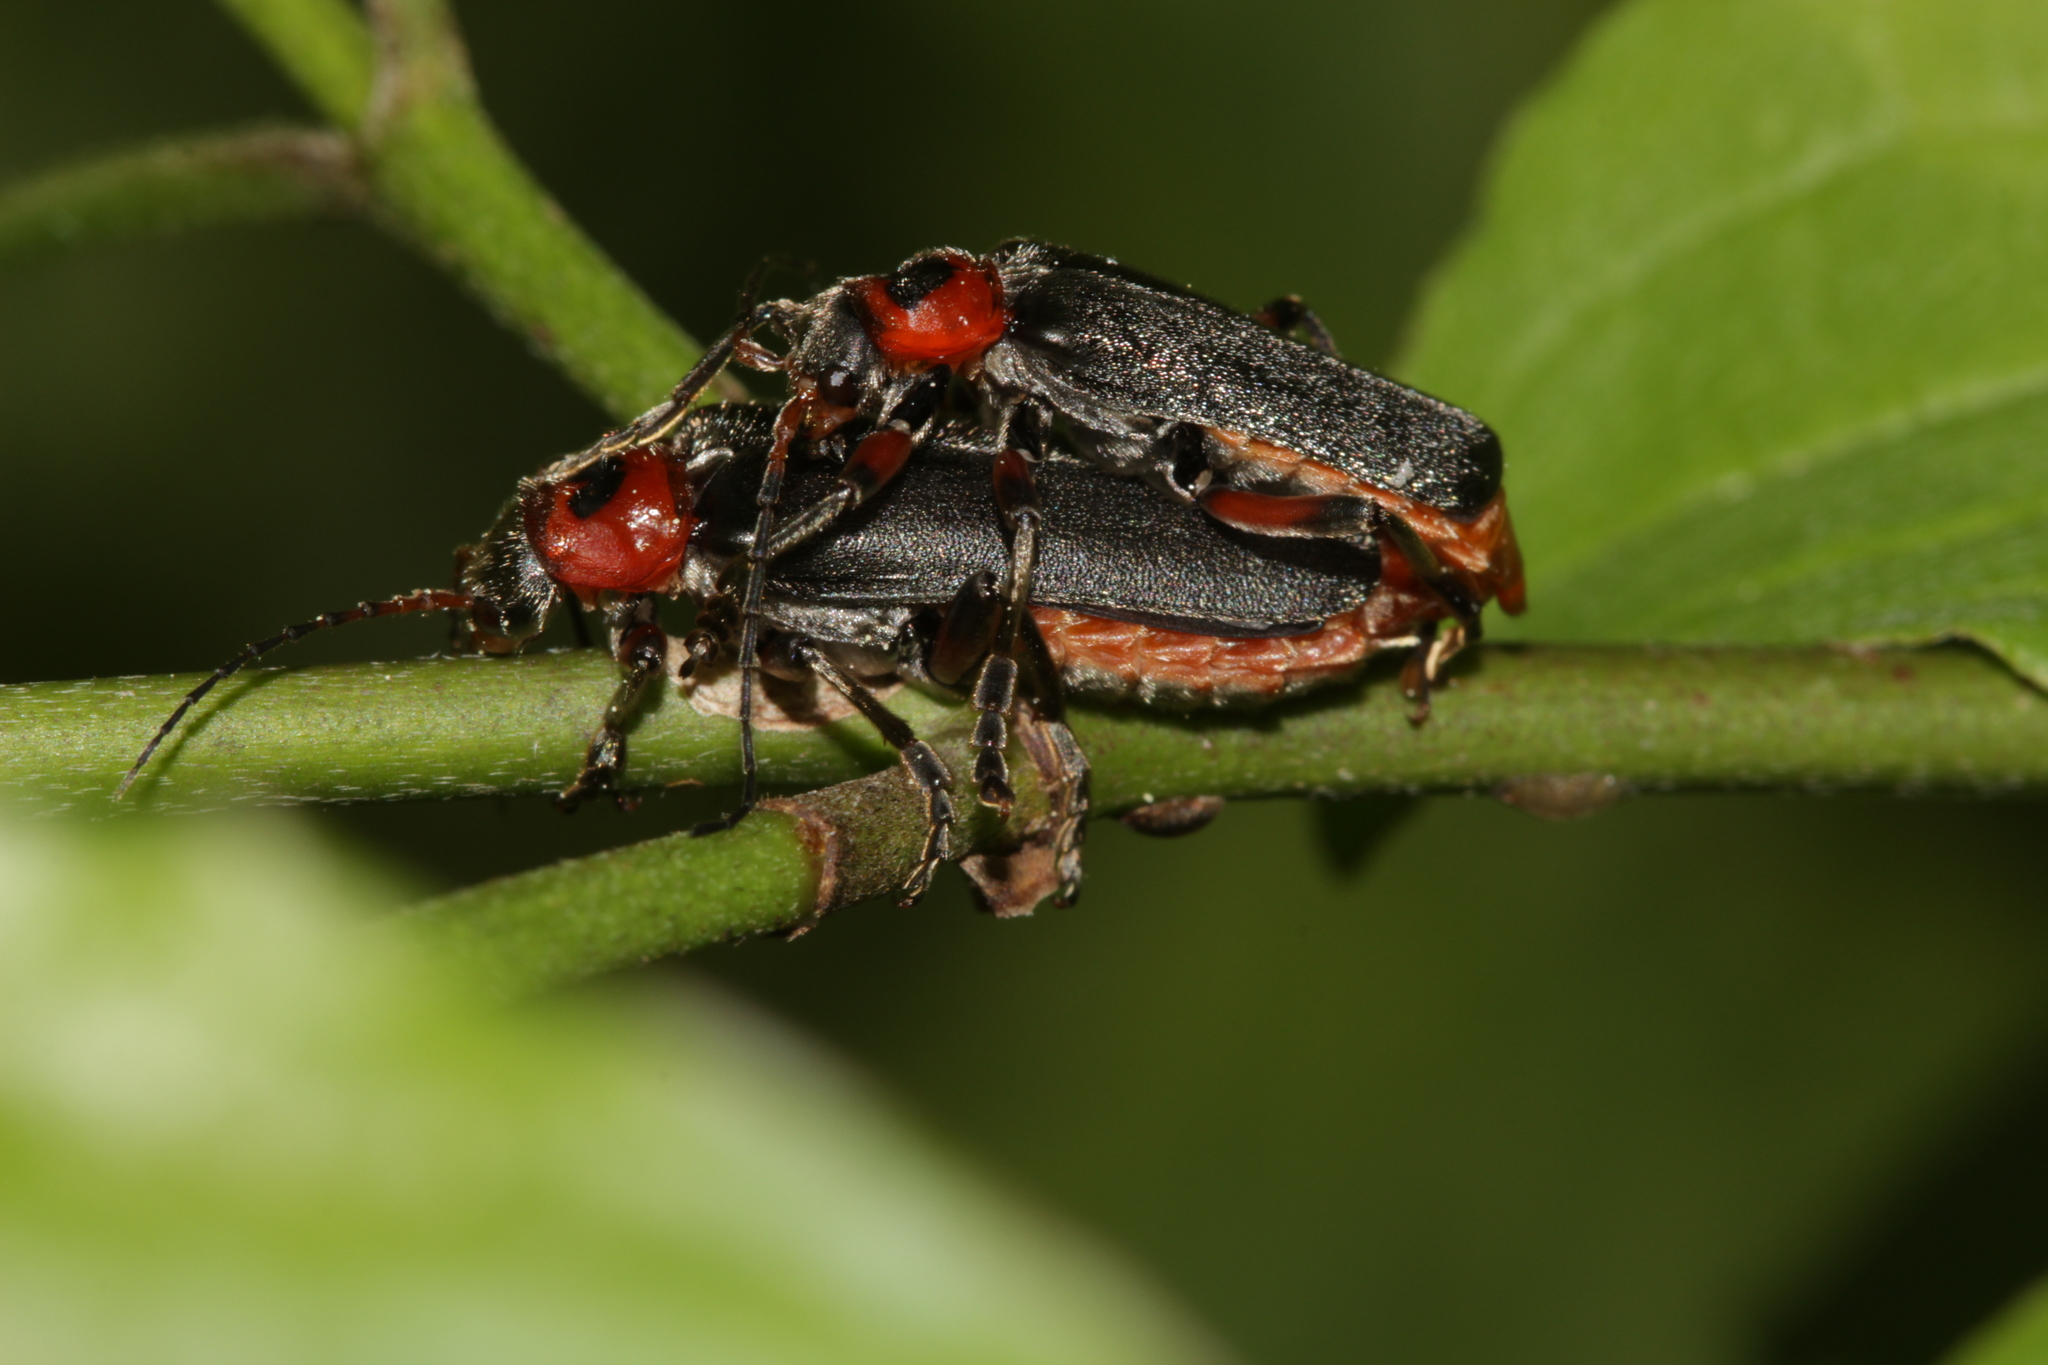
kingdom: Animalia
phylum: Arthropoda
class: Insecta
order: Coleoptera
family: Cantharidae
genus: Cantharis
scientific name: Cantharis rustica
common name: Soldier beetle
